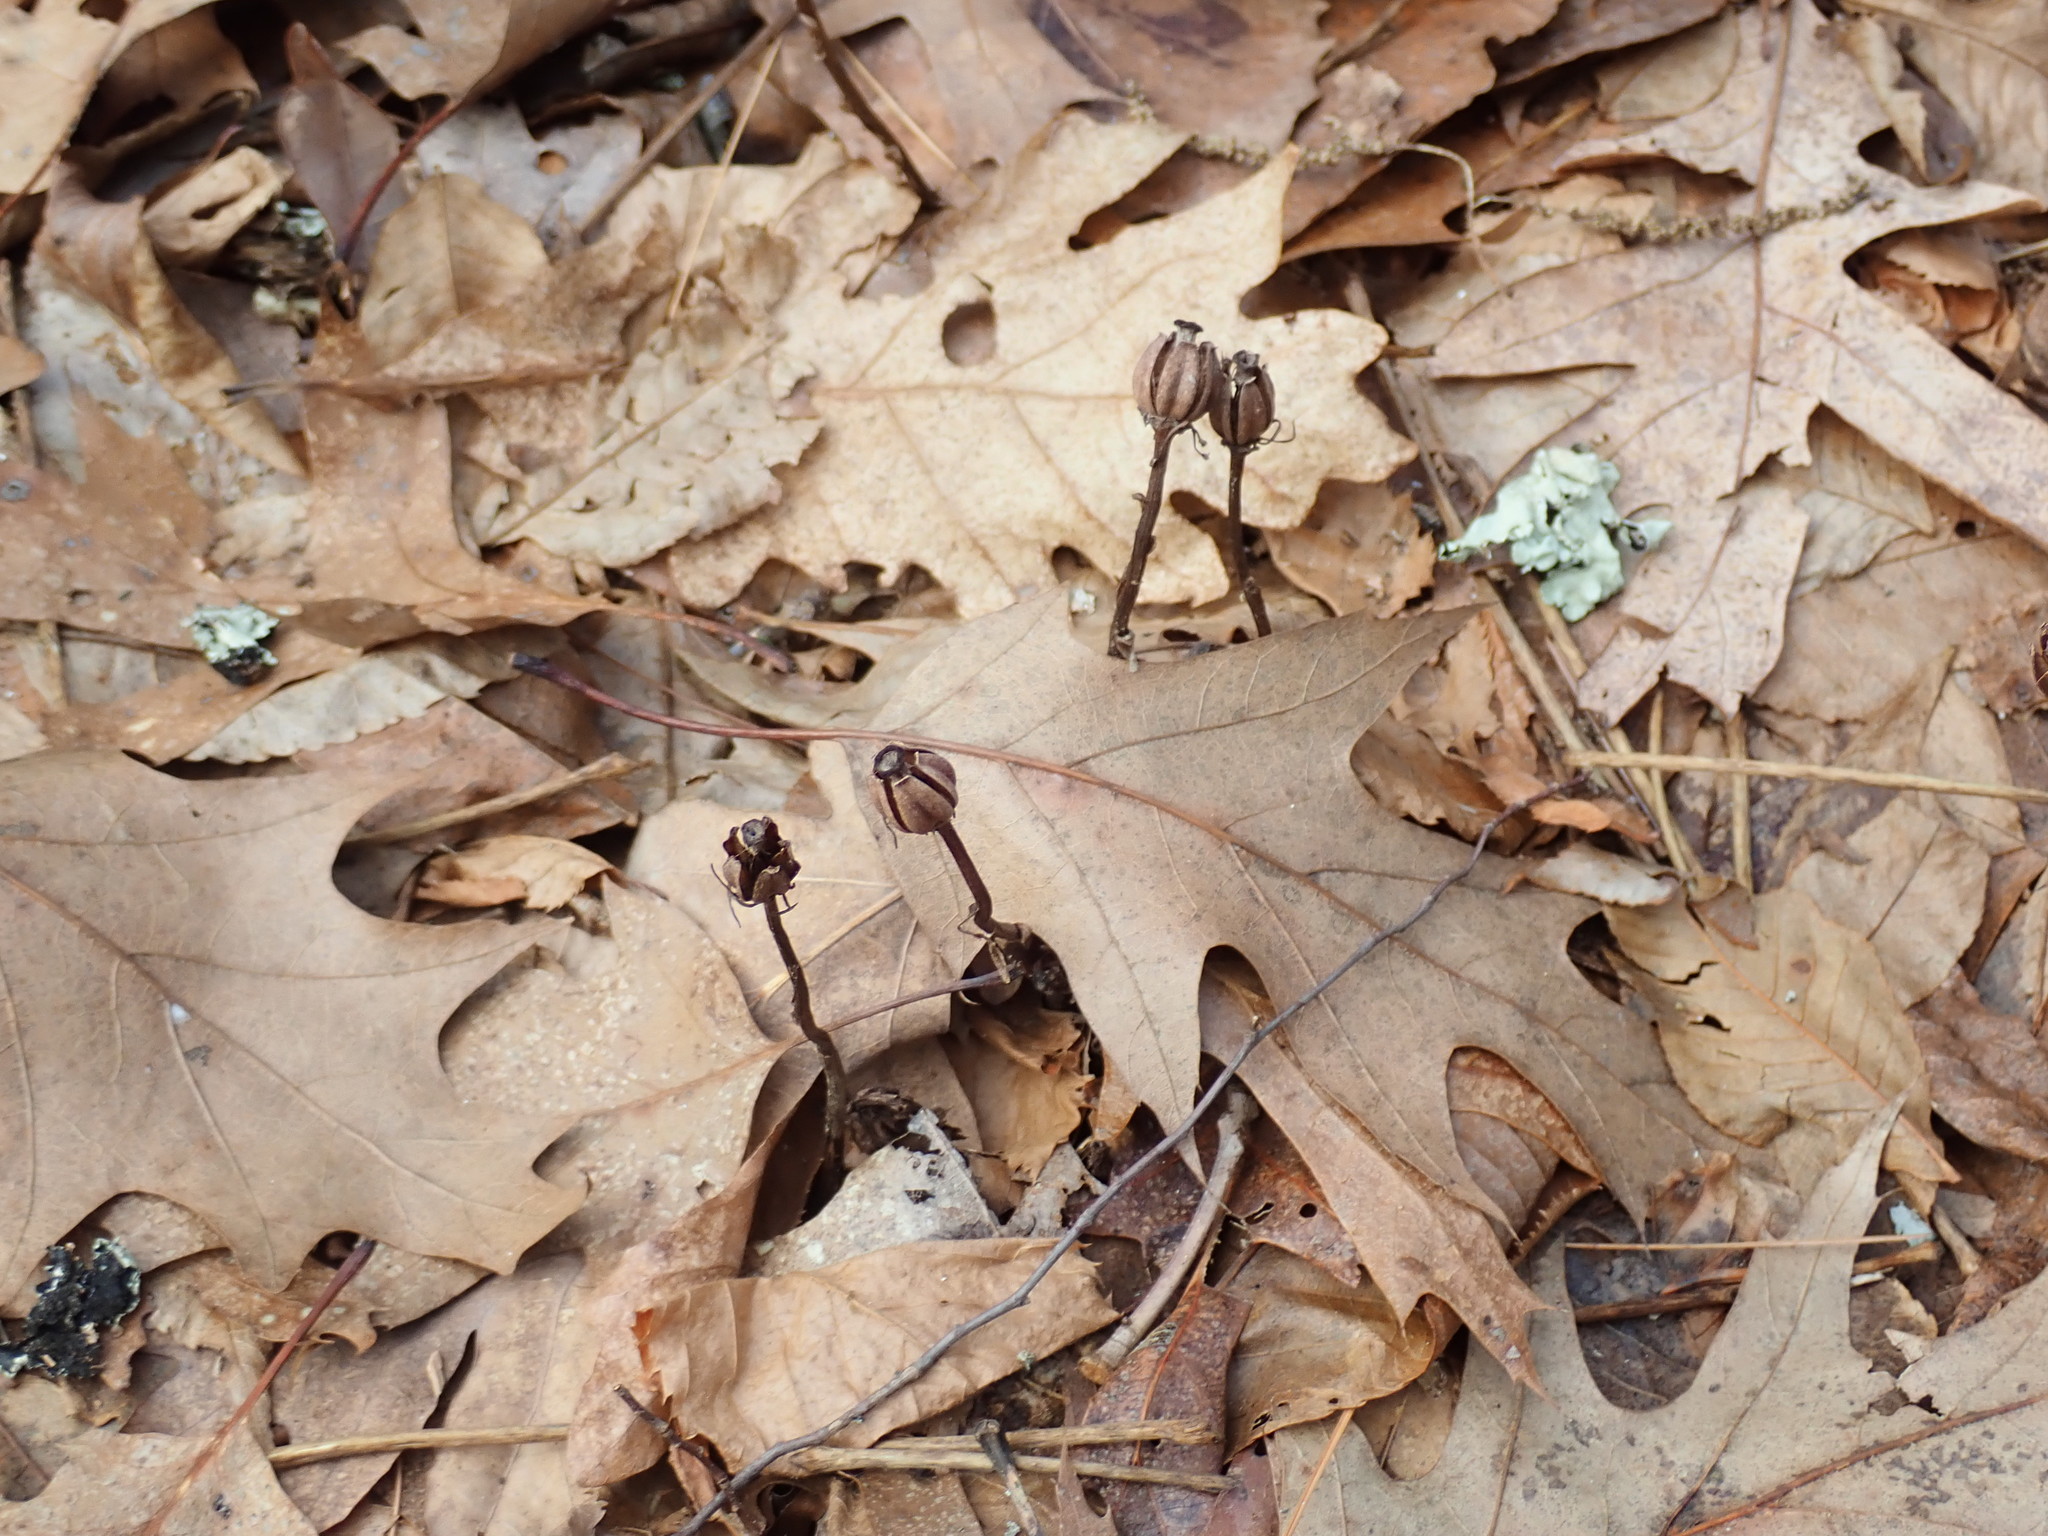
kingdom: Plantae
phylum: Tracheophyta
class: Magnoliopsida
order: Ericales
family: Ericaceae
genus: Monotropa
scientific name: Monotropa uniflora
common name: Convulsion root
